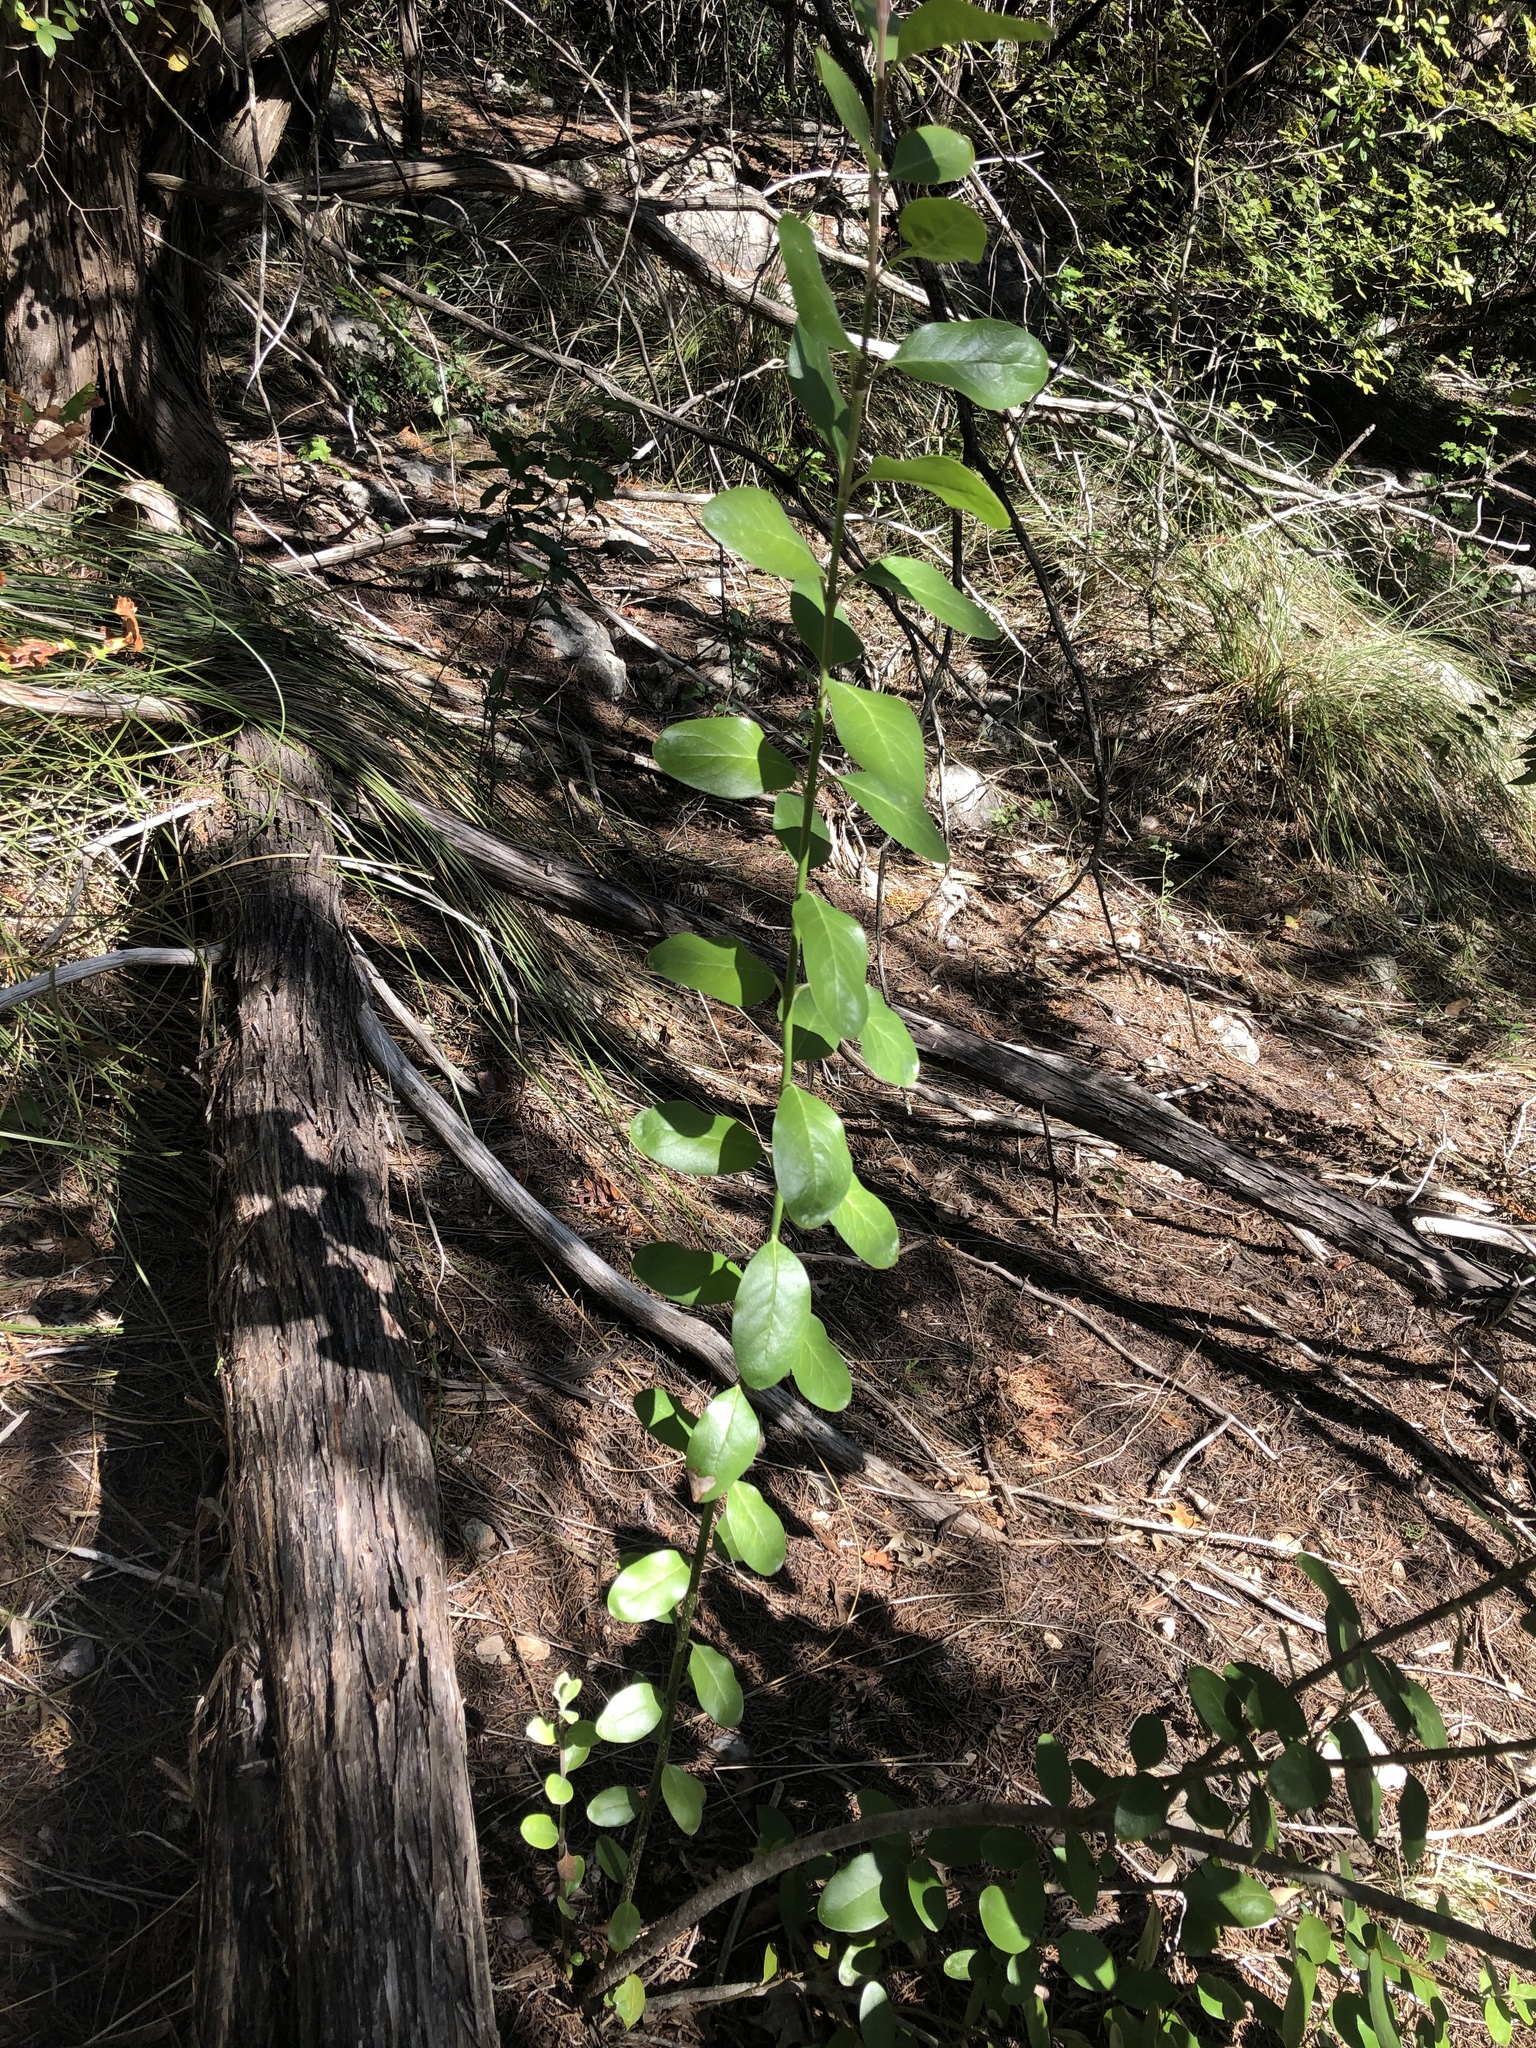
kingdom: Plantae
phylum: Tracheophyta
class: Magnoliopsida
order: Garryales
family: Garryaceae
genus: Garrya
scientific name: Garrya lindheimeri
